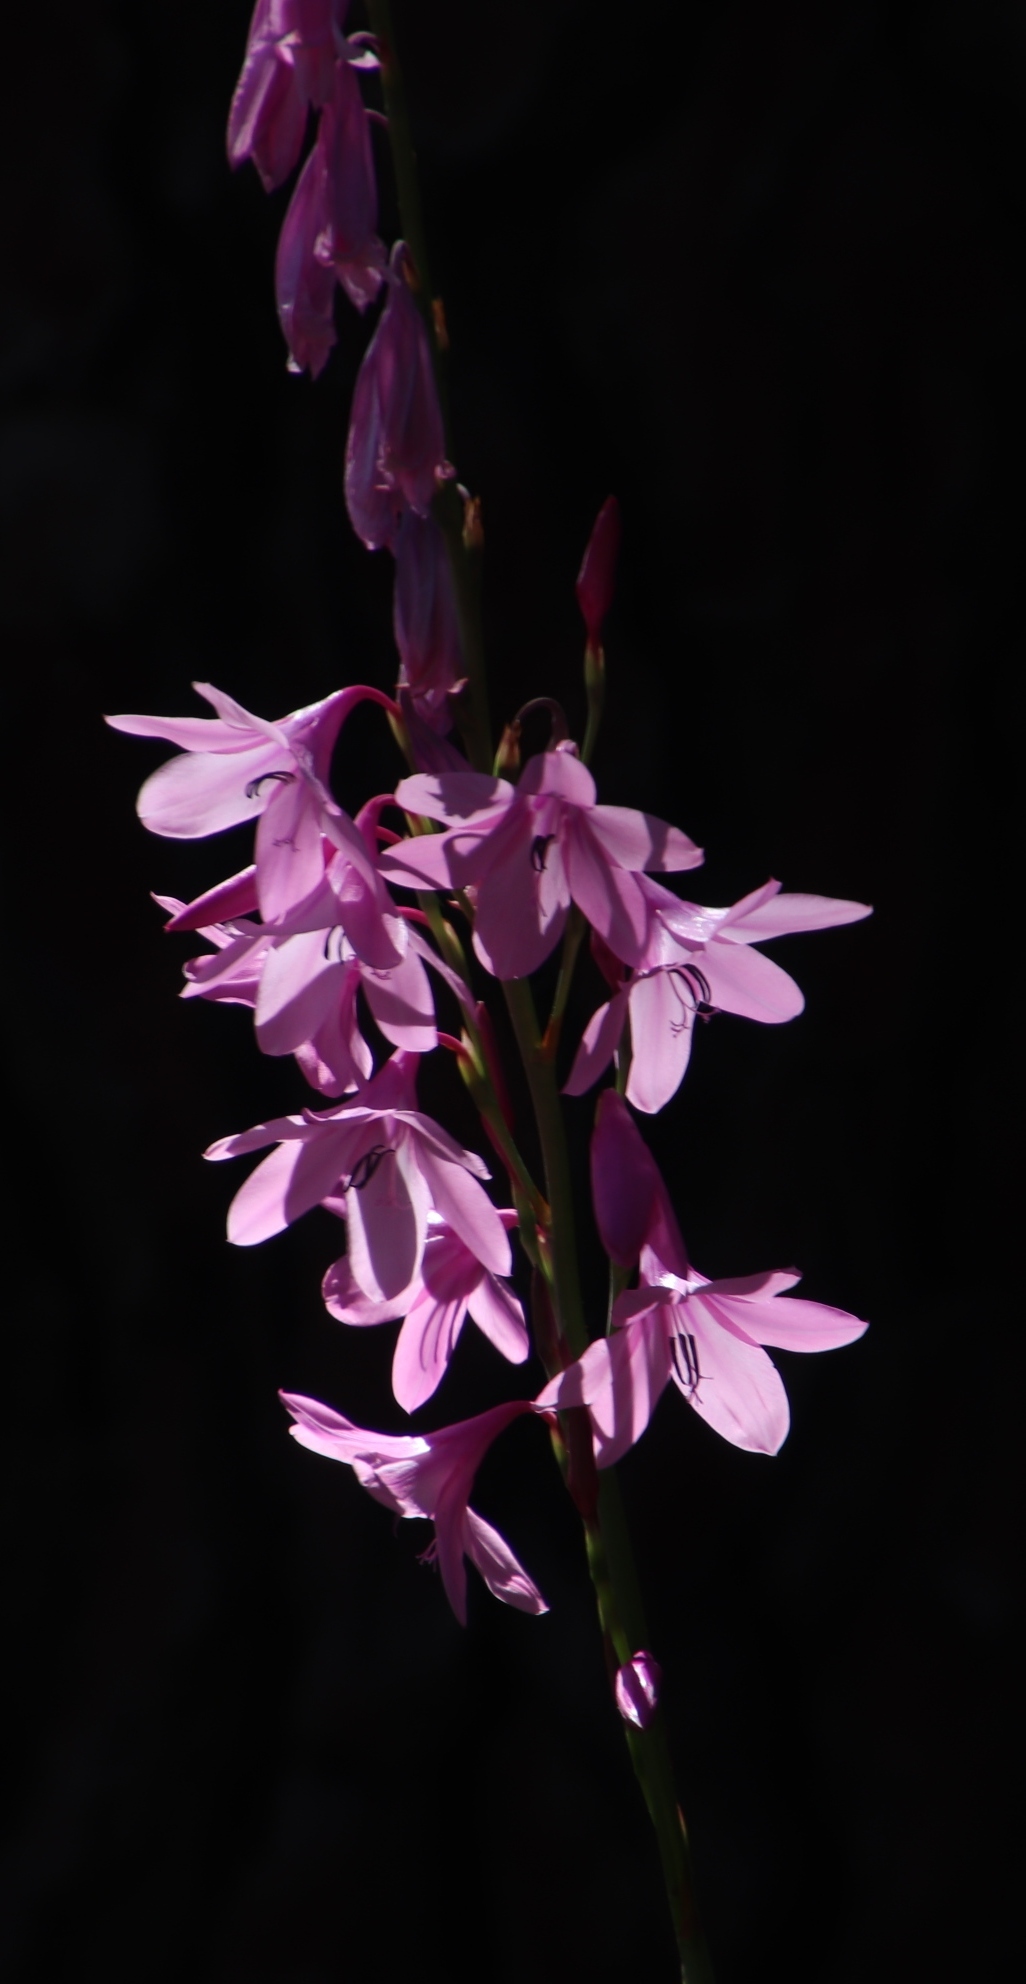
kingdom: Plantae
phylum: Tracheophyta
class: Liliopsida
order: Asparagales
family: Iridaceae
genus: Watsonia
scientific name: Watsonia borbonica
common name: Bugle-lily
